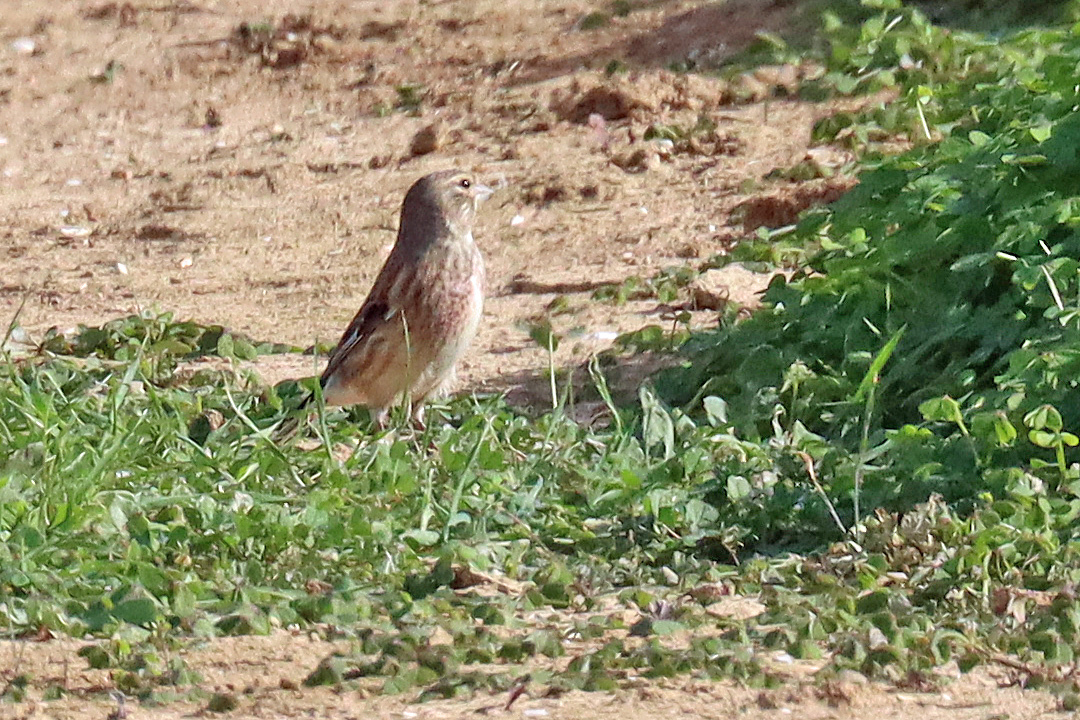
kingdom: Animalia
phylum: Chordata
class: Aves
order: Passeriformes
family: Fringillidae
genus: Linaria
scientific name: Linaria cannabina
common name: Common linnet
